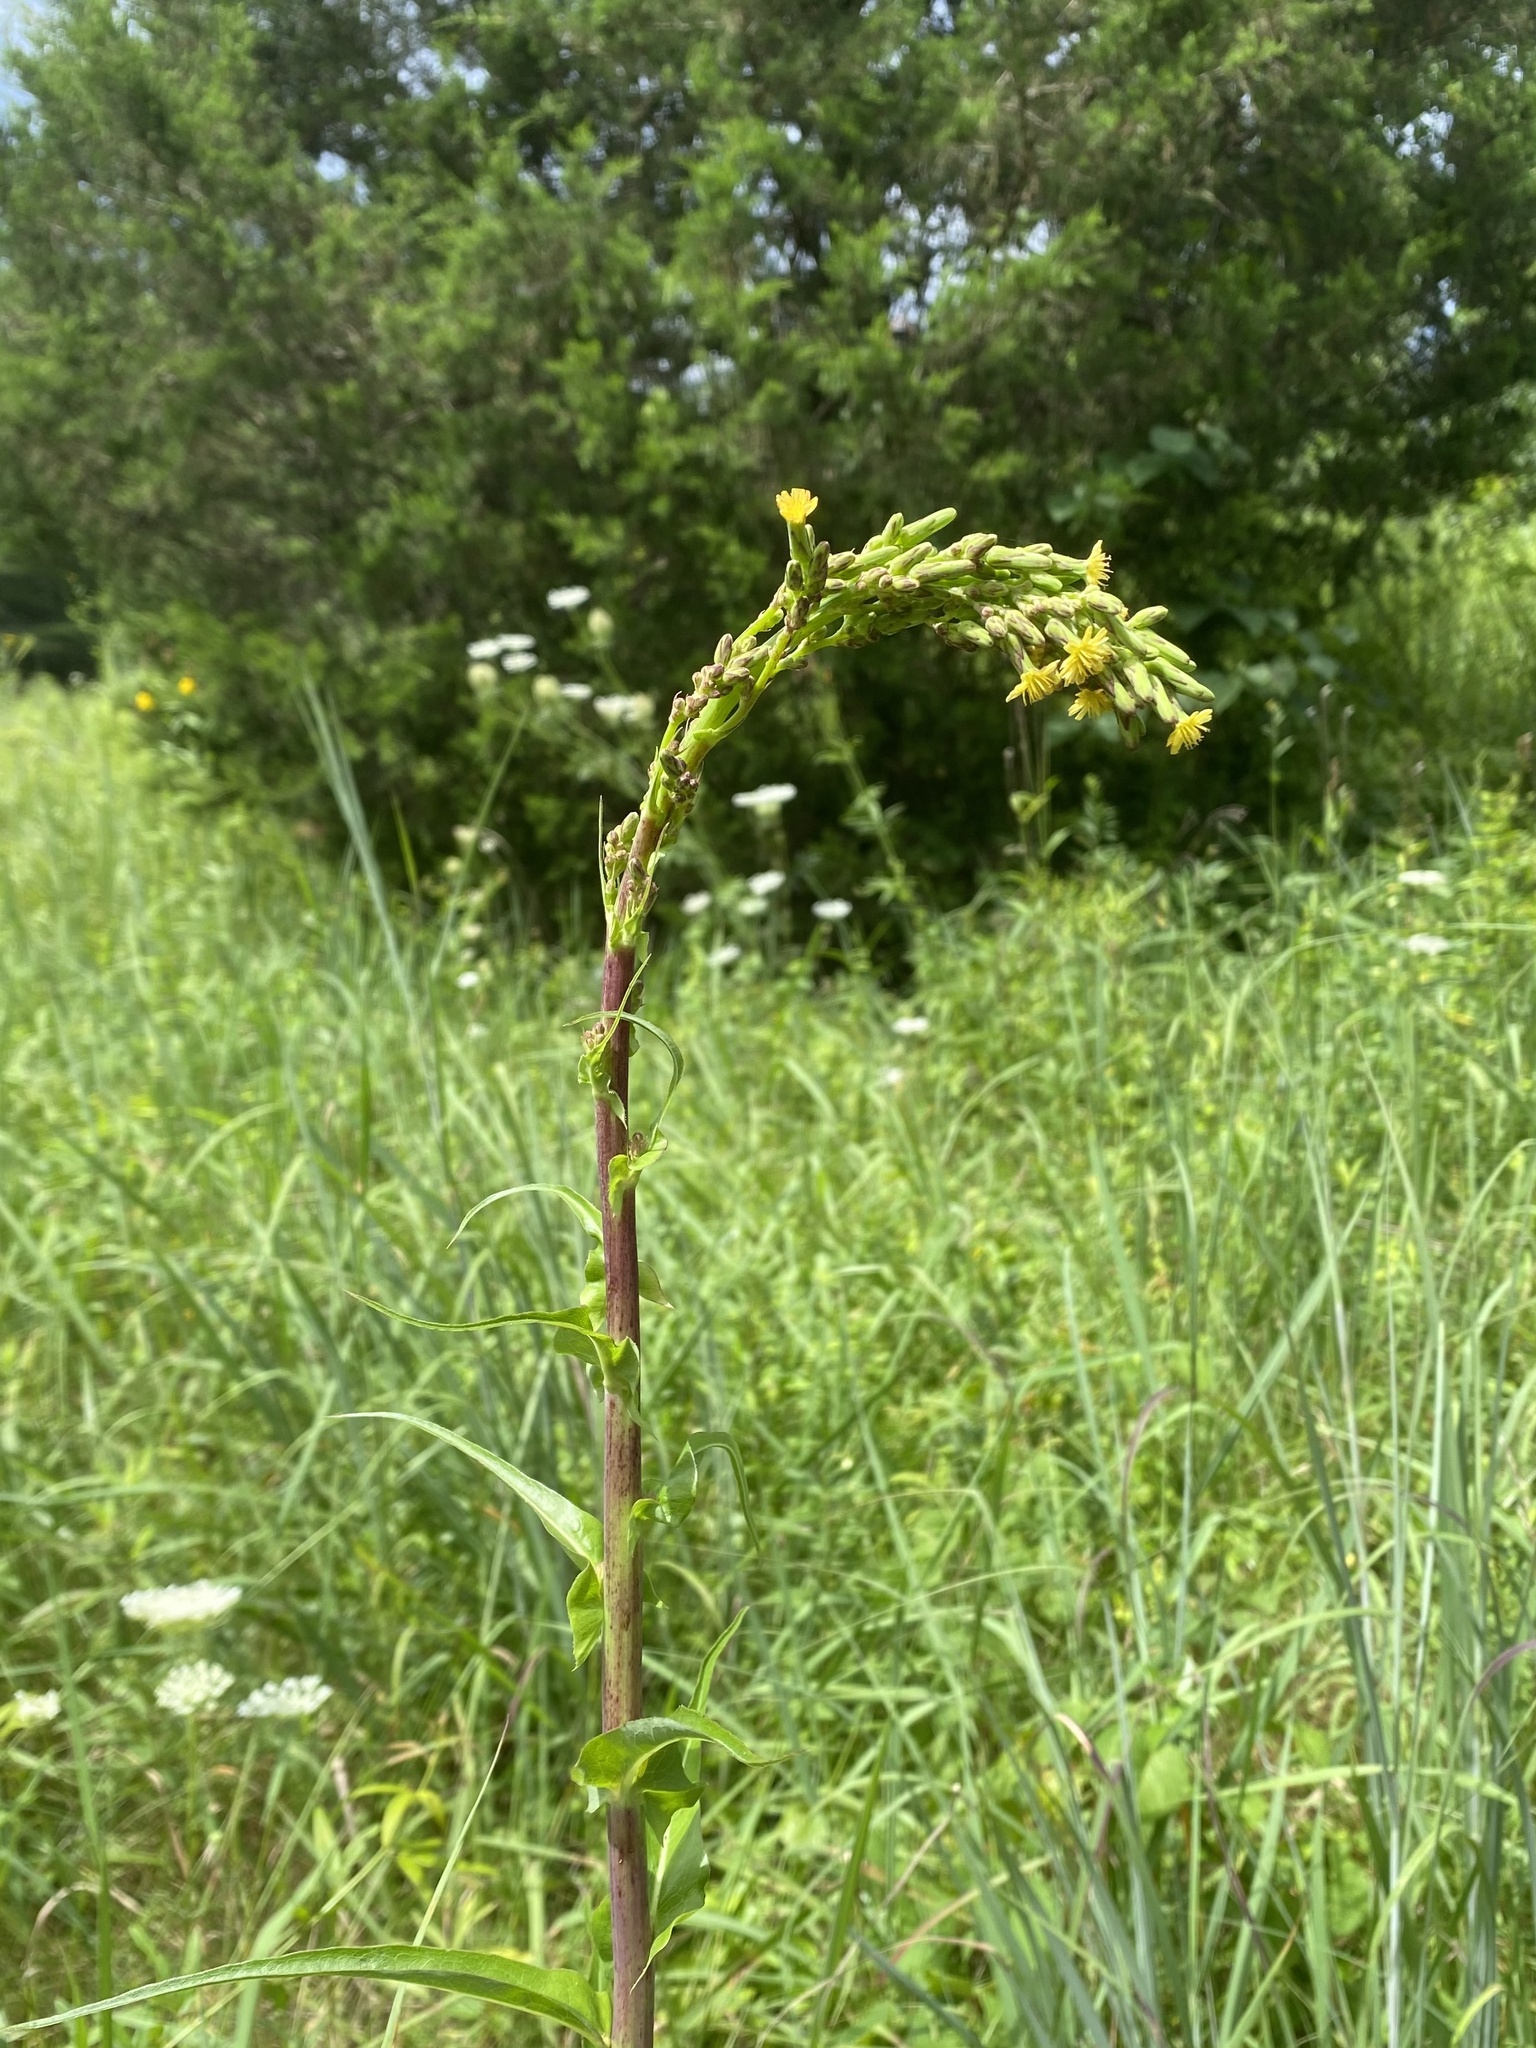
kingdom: Plantae
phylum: Tracheophyta
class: Magnoliopsida
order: Asterales
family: Asteraceae
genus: Lactuca
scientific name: Lactuca canadensis
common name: Canada lettuce
